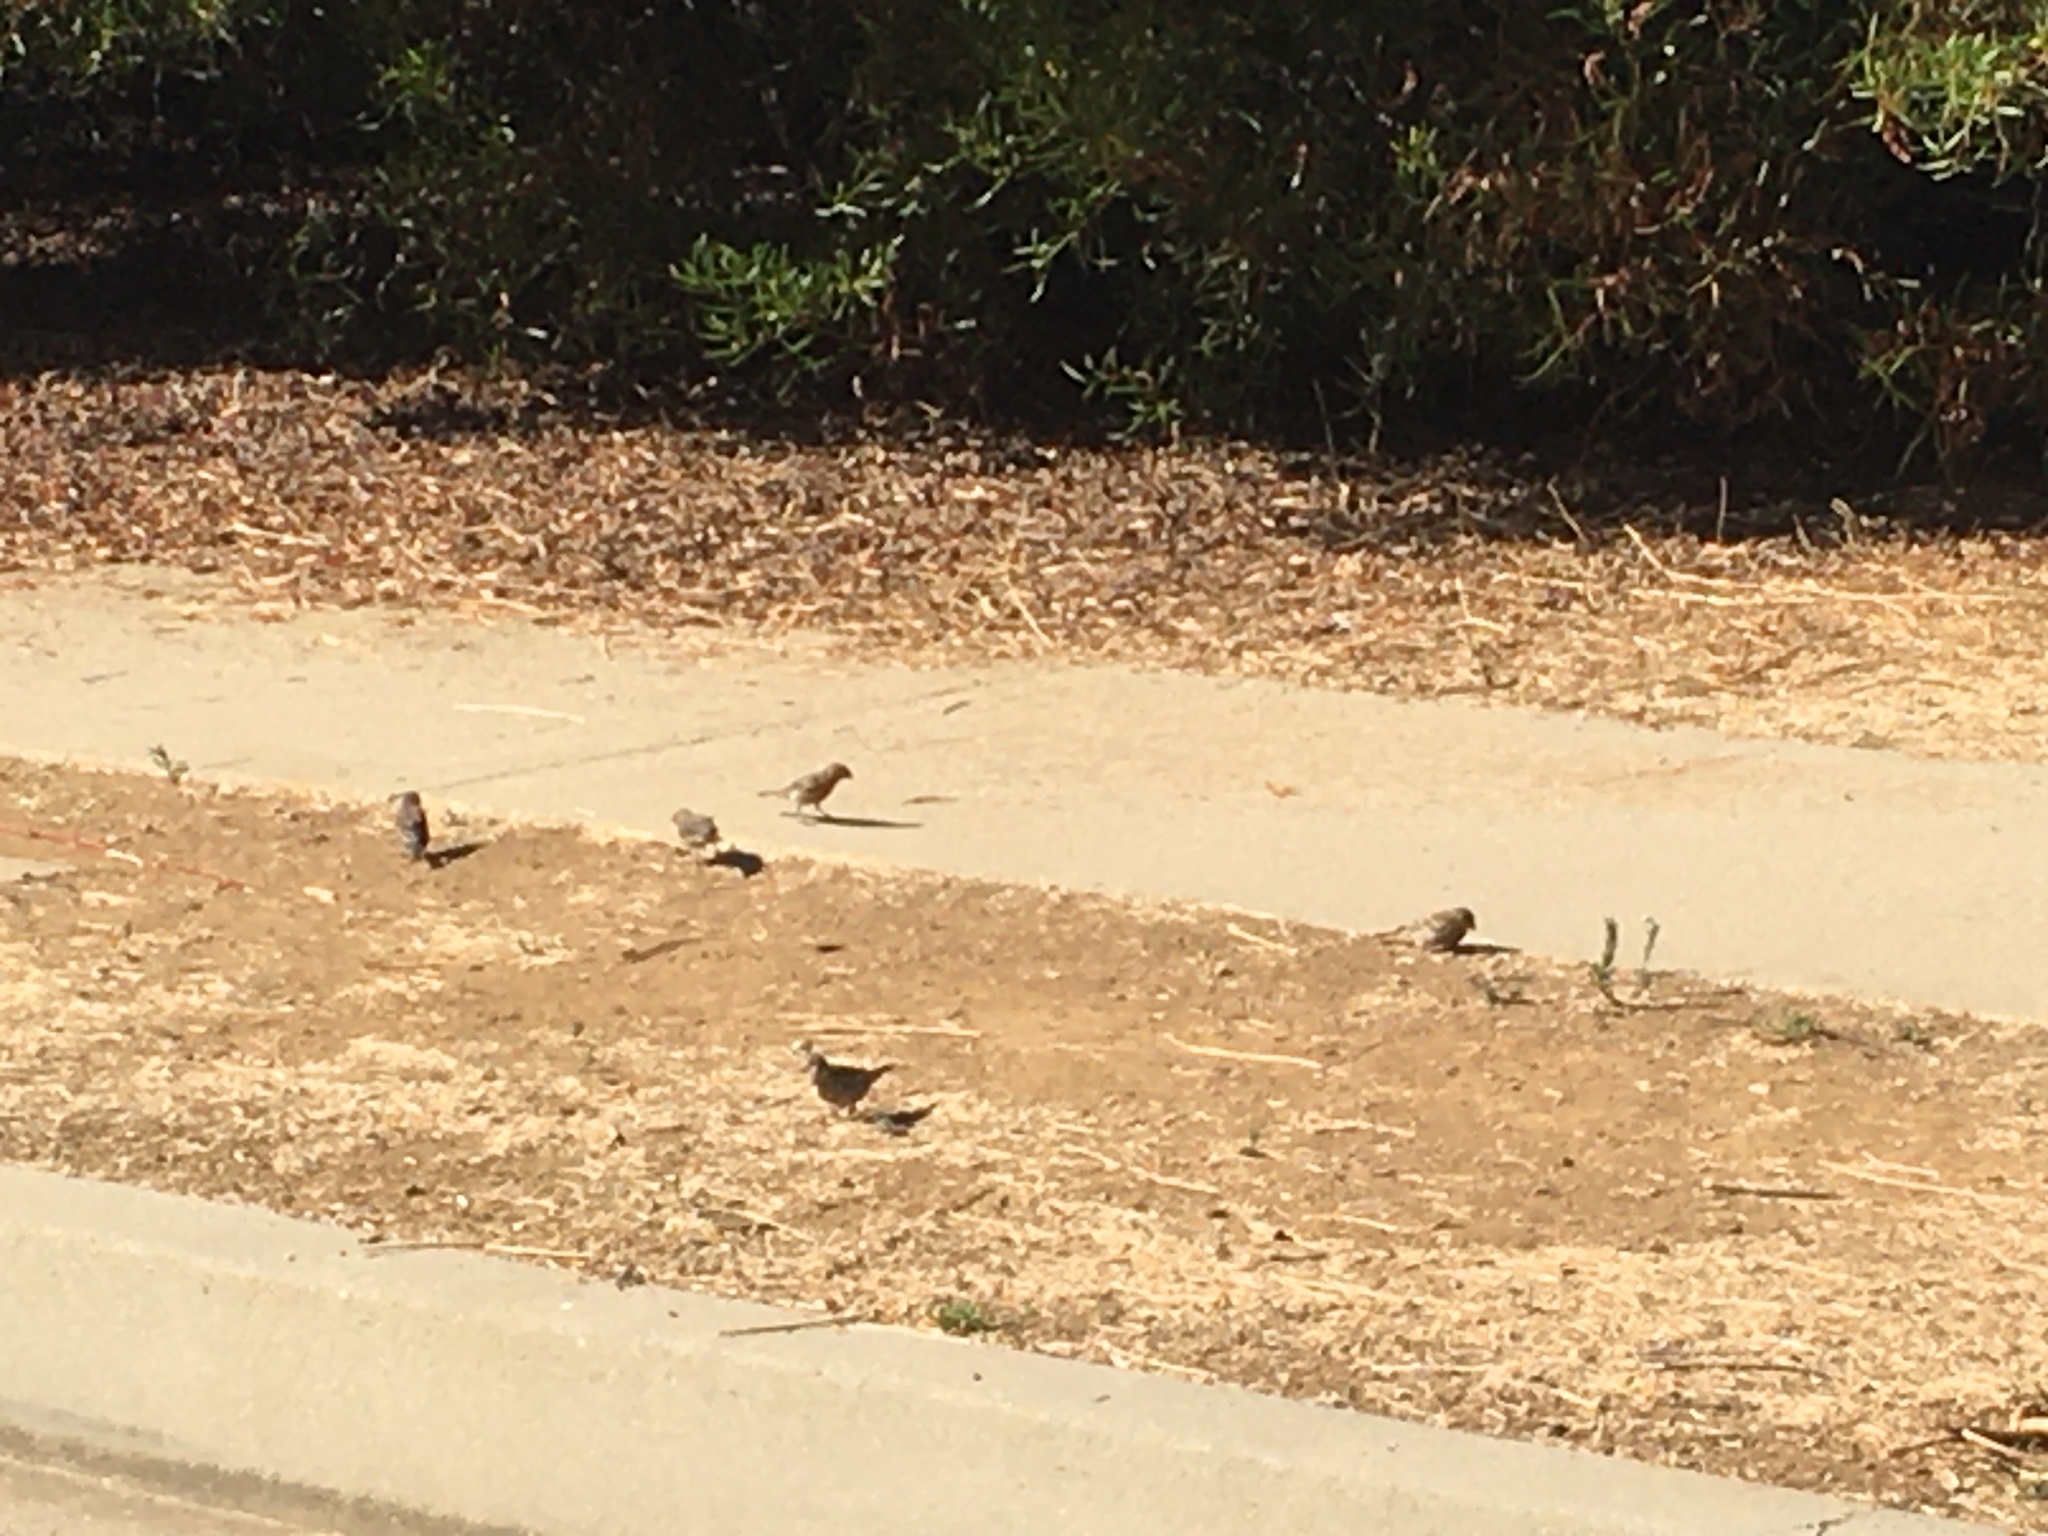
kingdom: Animalia
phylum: Chordata
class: Aves
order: Passeriformes
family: Fringillidae
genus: Haemorhous
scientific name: Haemorhous mexicanus
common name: House finch
